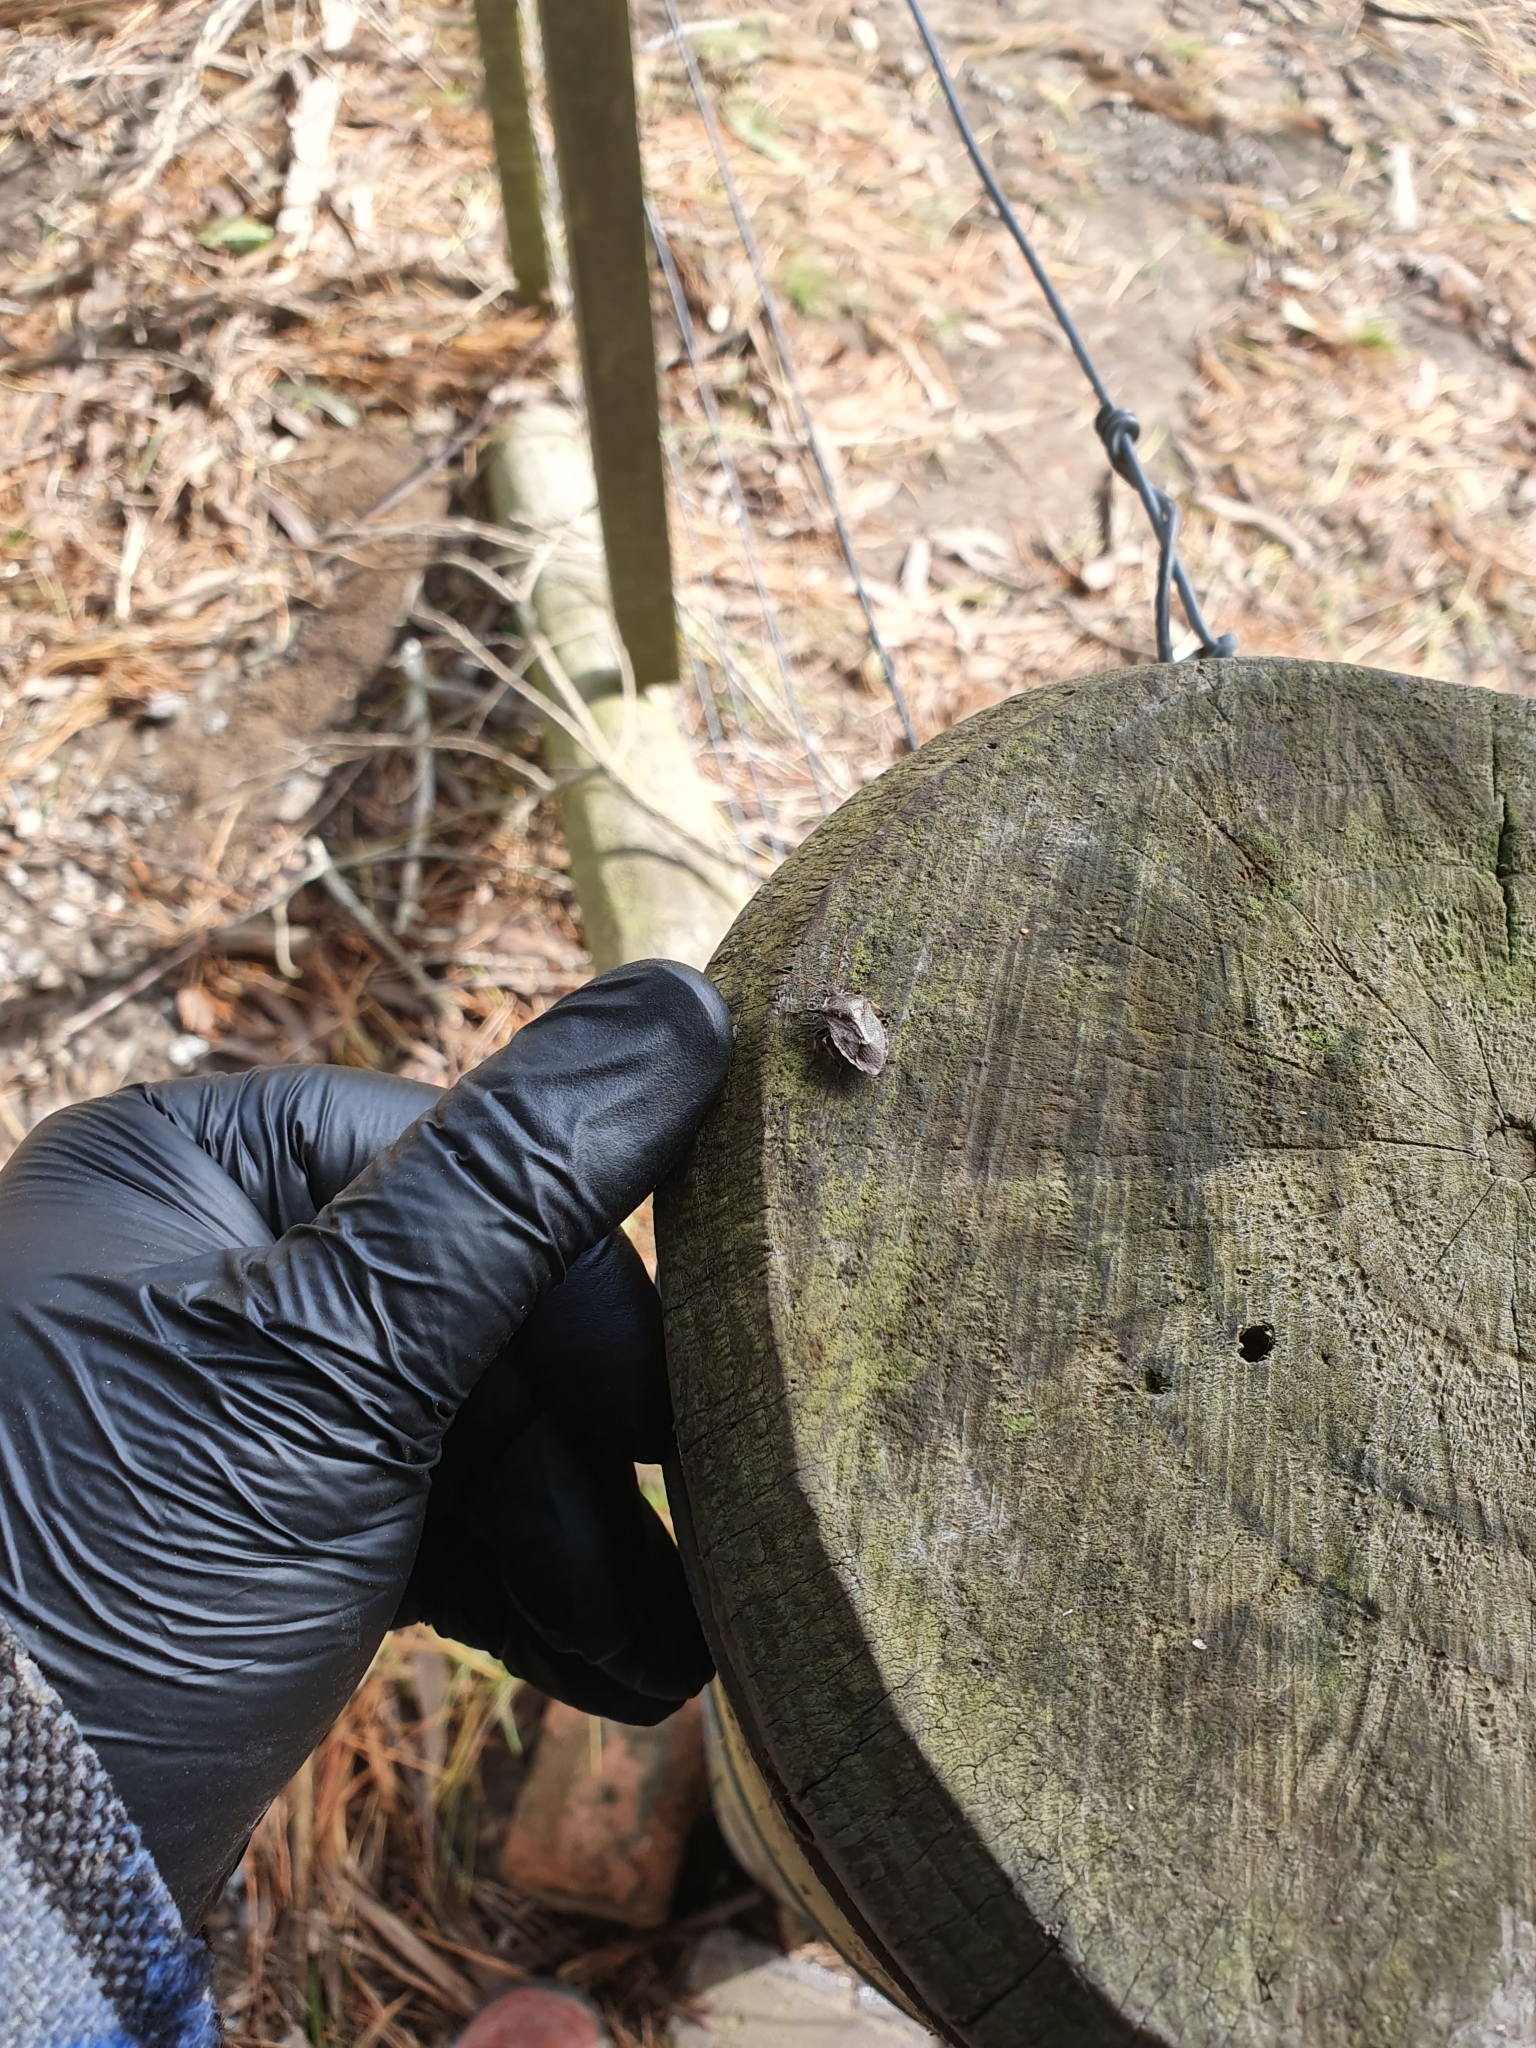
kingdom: Animalia
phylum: Arthropoda
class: Insecta
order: Hemiptera
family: Pentatomidae
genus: Cermatulus
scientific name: Cermatulus nasalis
